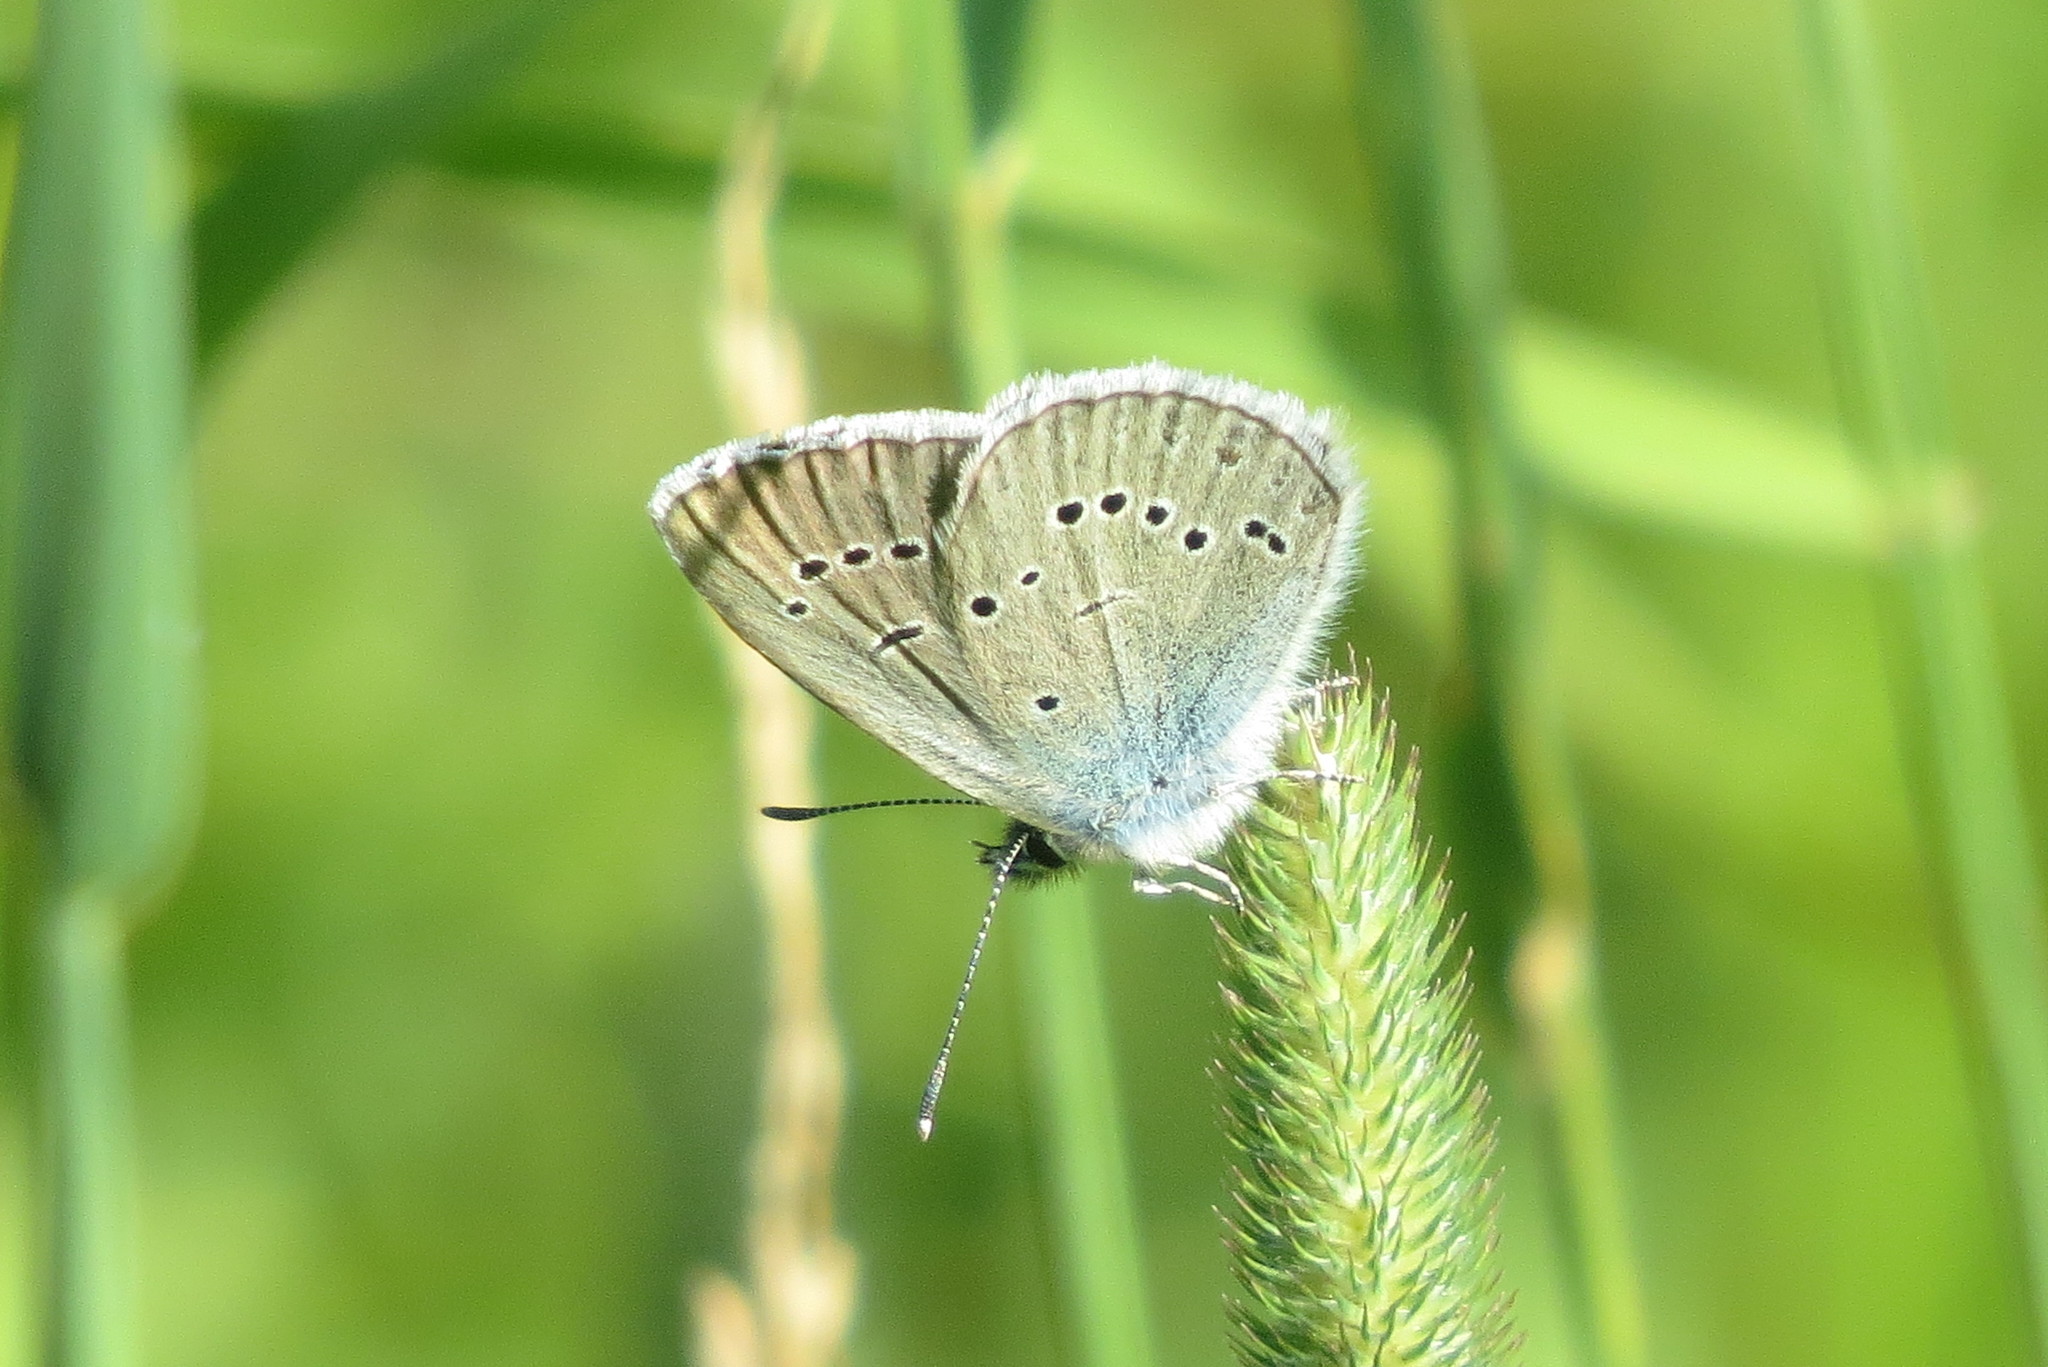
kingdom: Animalia
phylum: Arthropoda
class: Insecta
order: Lepidoptera
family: Lycaenidae
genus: Cyaniris
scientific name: Cyaniris semiargus
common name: Mazarine blue
